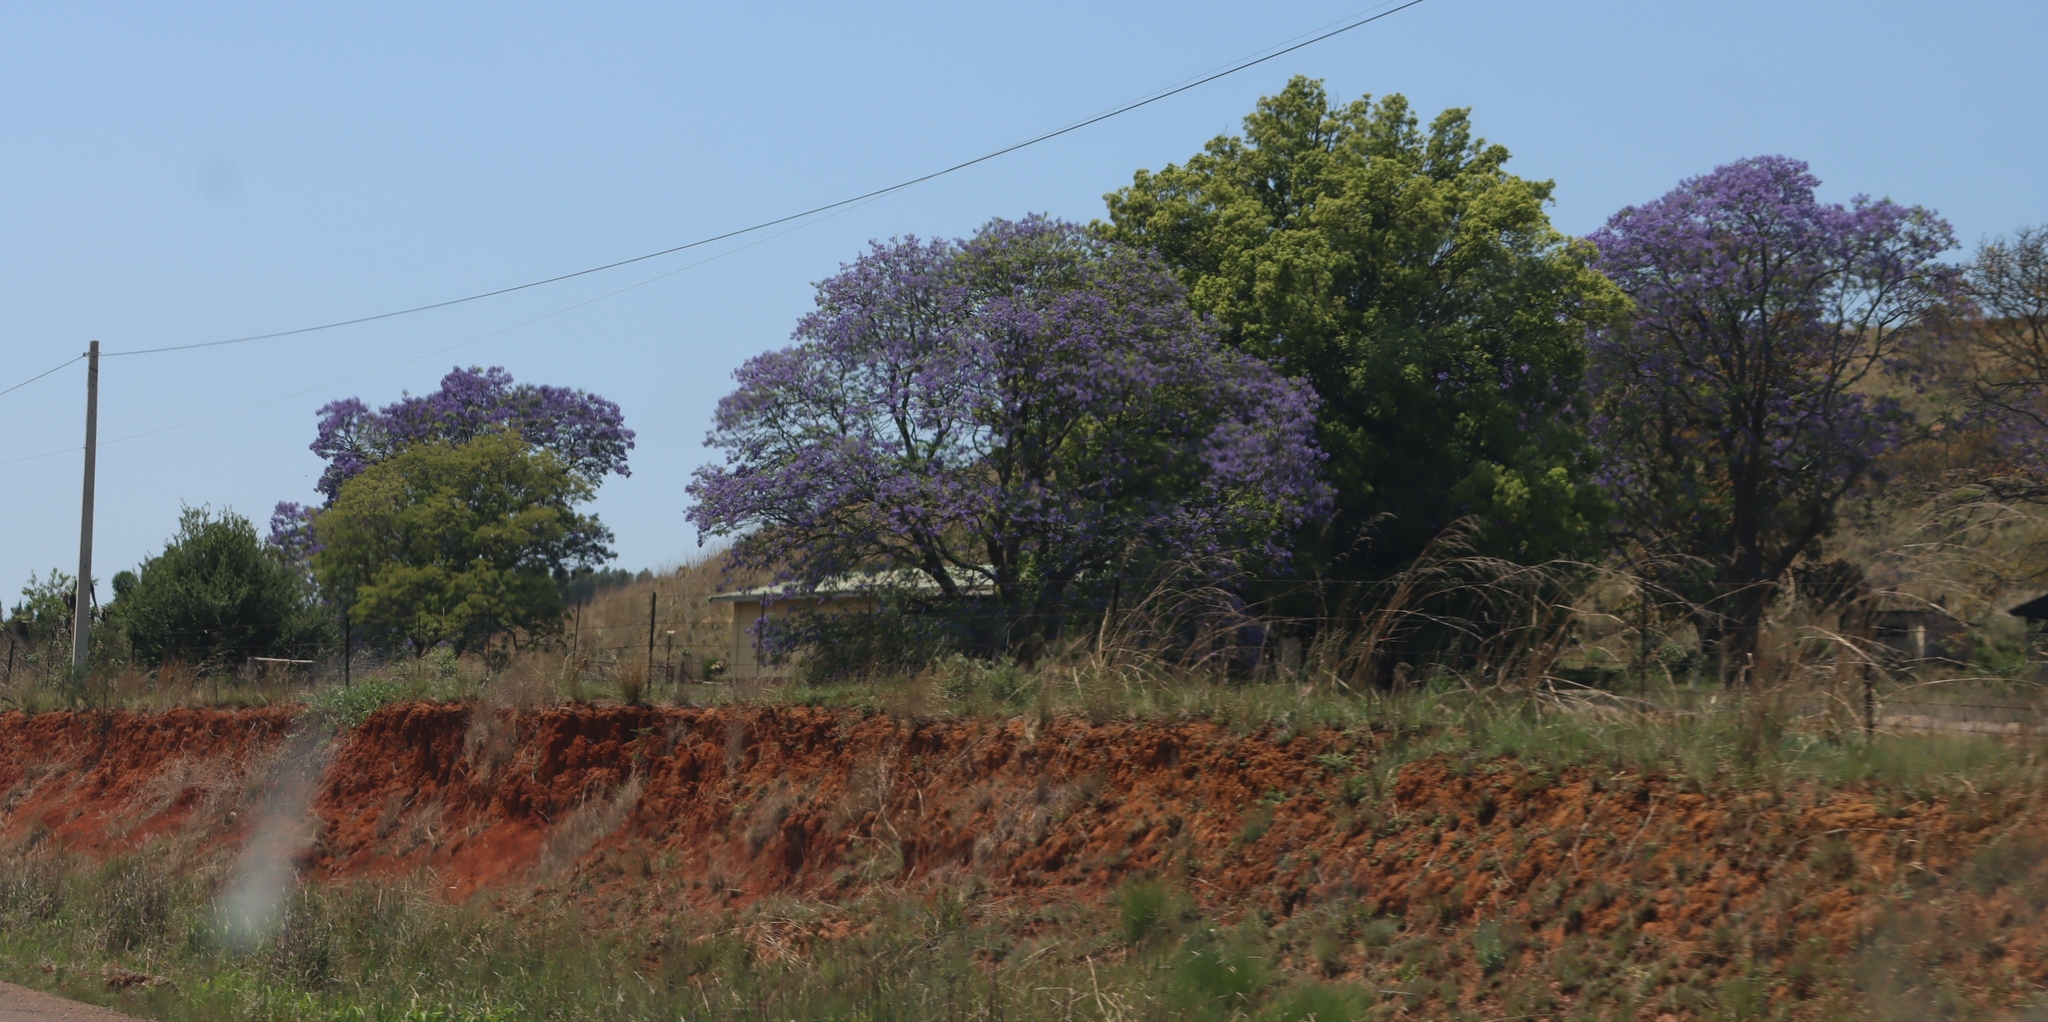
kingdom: Plantae
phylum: Tracheophyta
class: Magnoliopsida
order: Lamiales
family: Bignoniaceae
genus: Jacaranda
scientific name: Jacaranda mimosifolia
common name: Black poui
